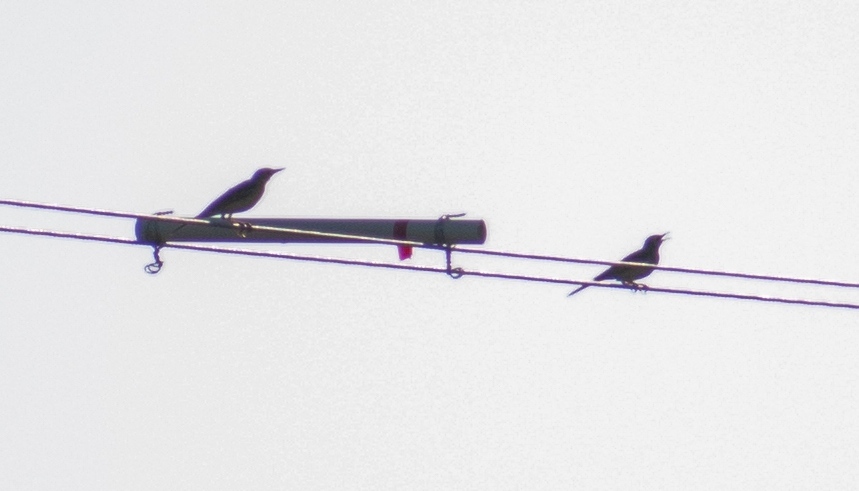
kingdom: Animalia
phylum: Chordata
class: Aves
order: Passeriformes
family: Oriolidae
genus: Oriolus
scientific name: Oriolus oriolus
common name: Eurasian golden oriole
